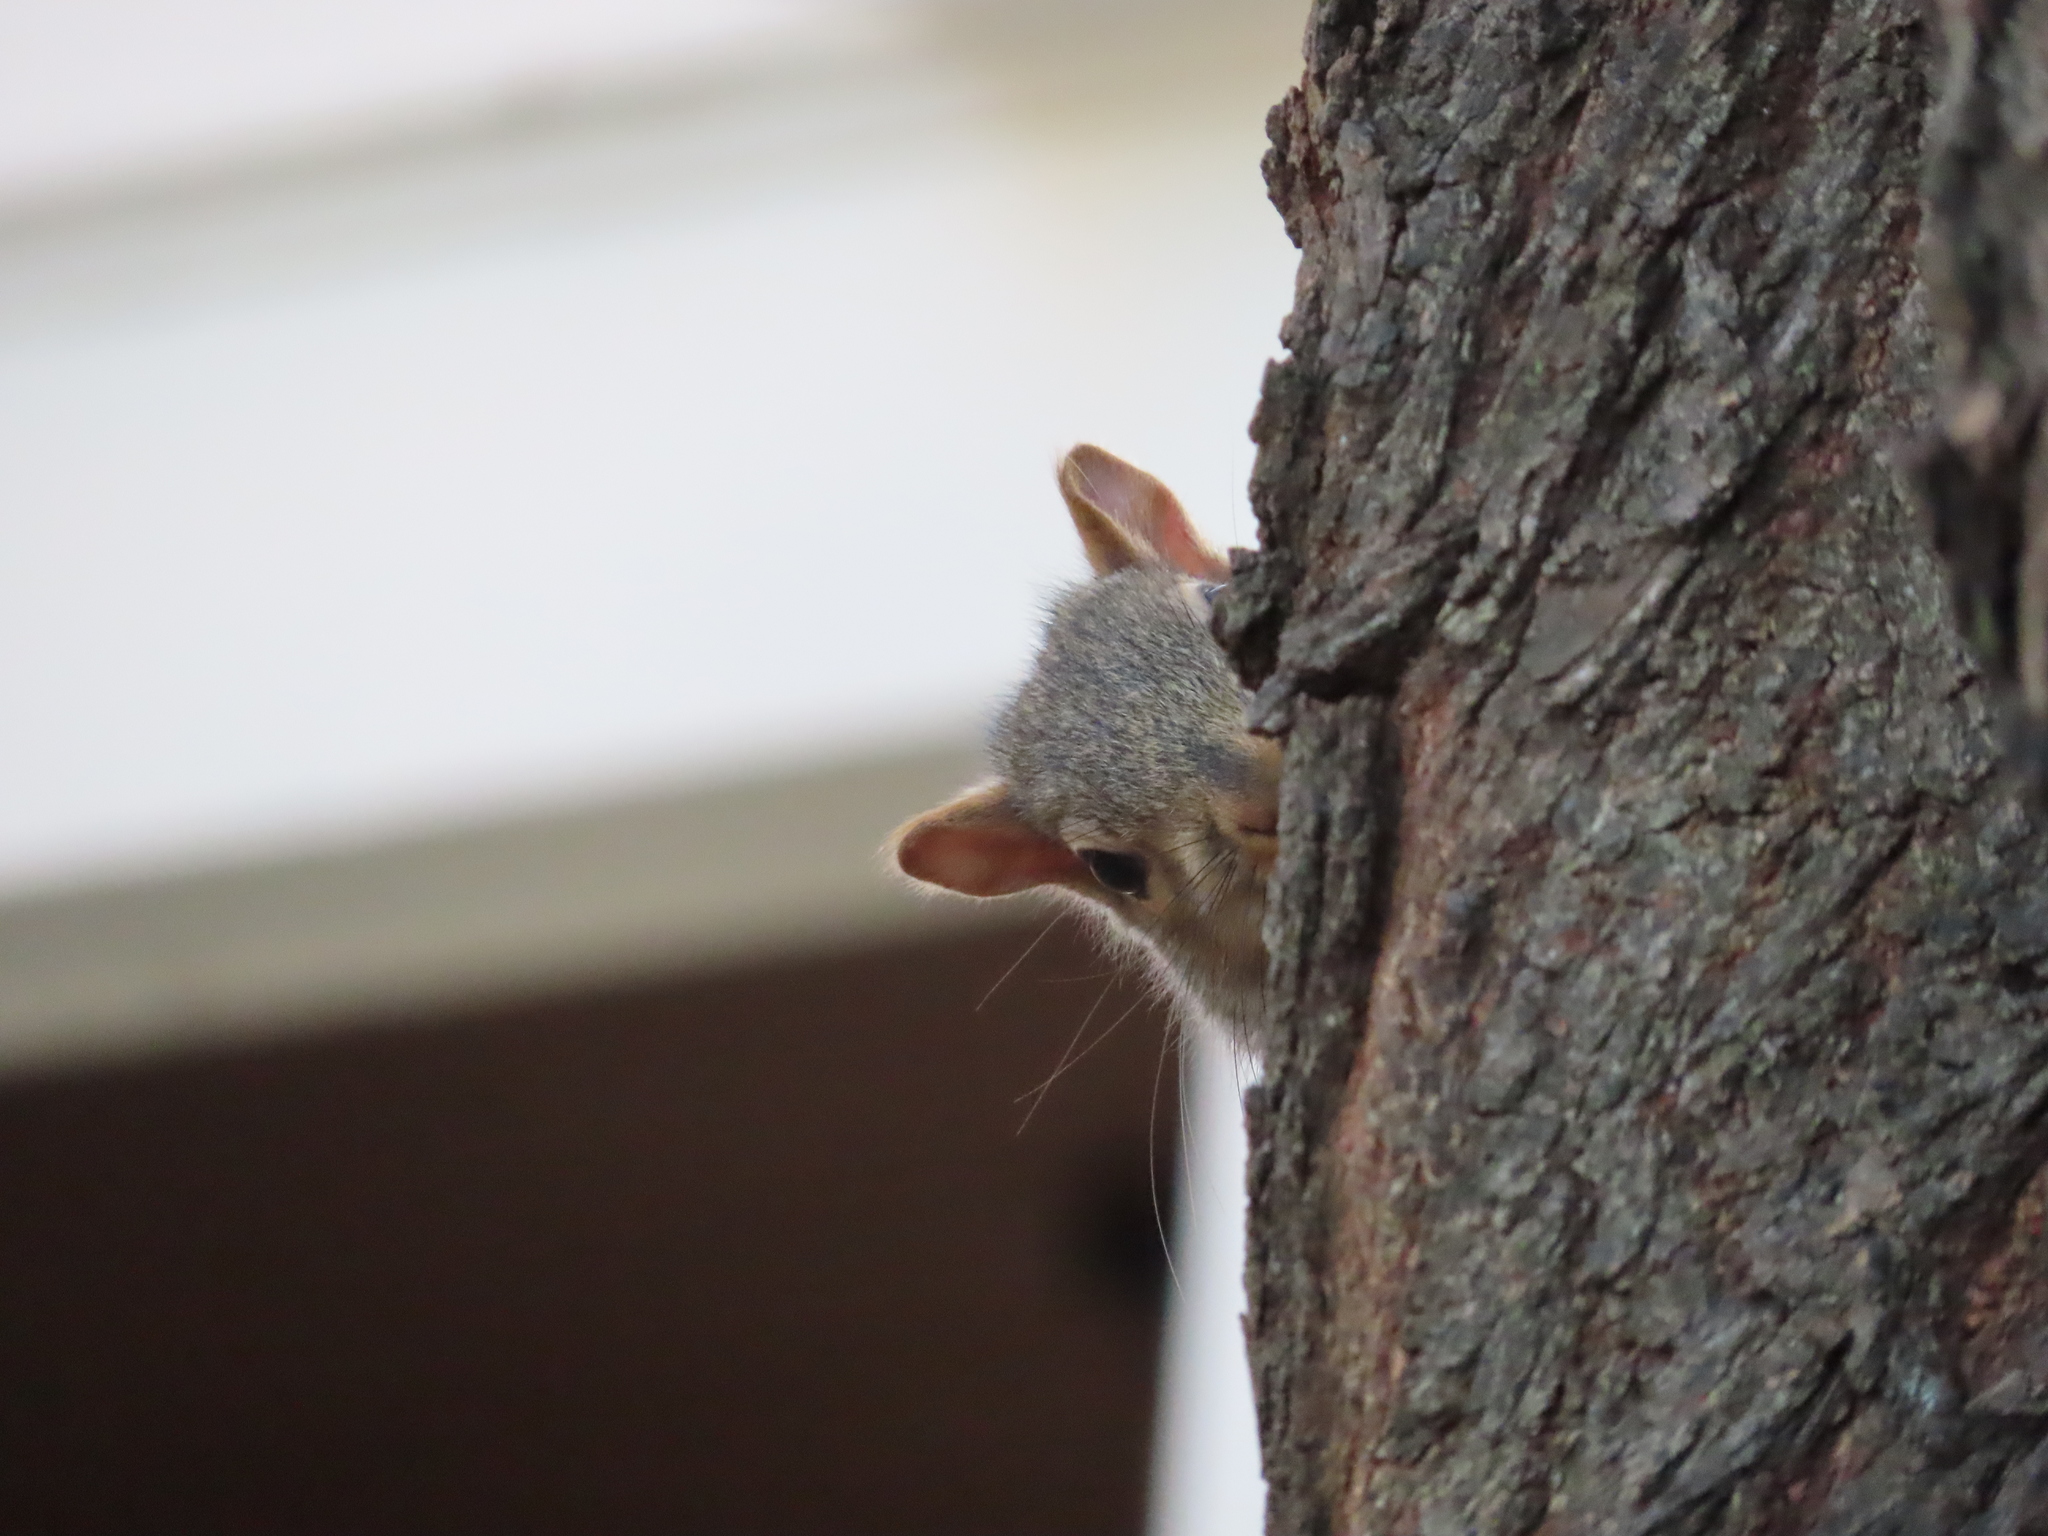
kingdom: Animalia
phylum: Chordata
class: Mammalia
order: Rodentia
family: Sciuridae
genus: Sciurus
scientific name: Sciurus carolinensis
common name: Eastern gray squirrel
